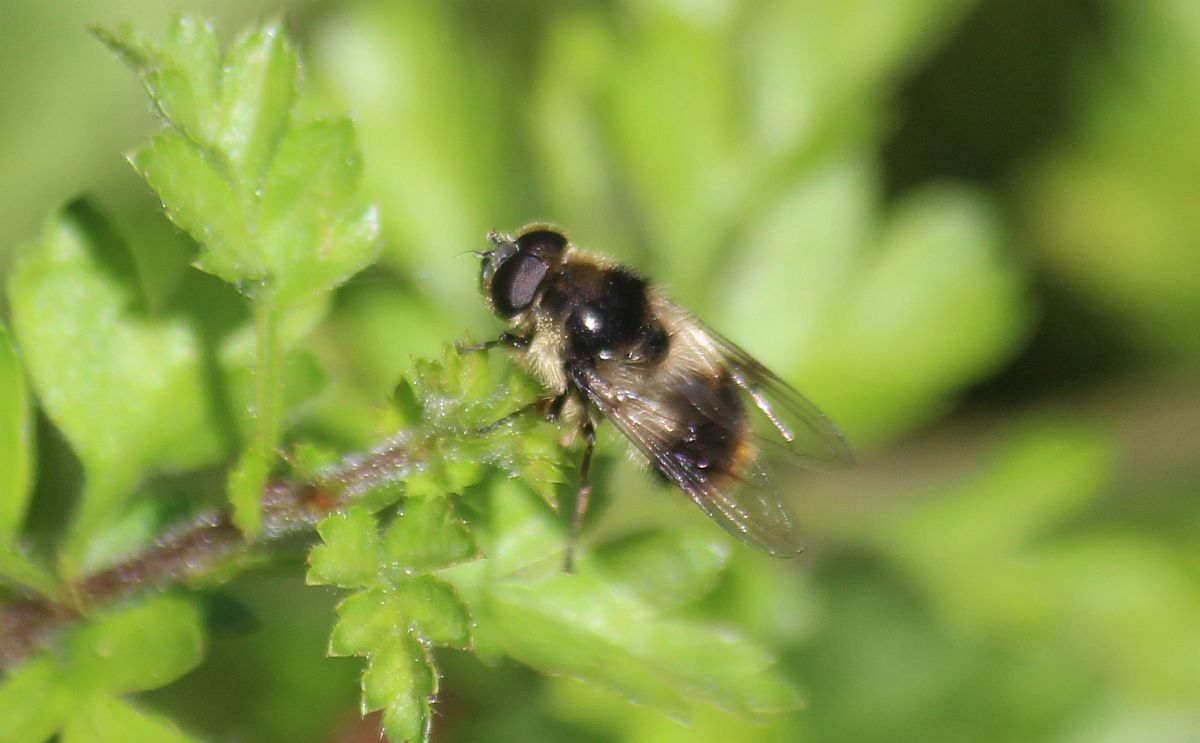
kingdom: Animalia
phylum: Arthropoda
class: Insecta
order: Diptera
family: Syrphidae
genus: Cheilosia
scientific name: Cheilosia illustrata
